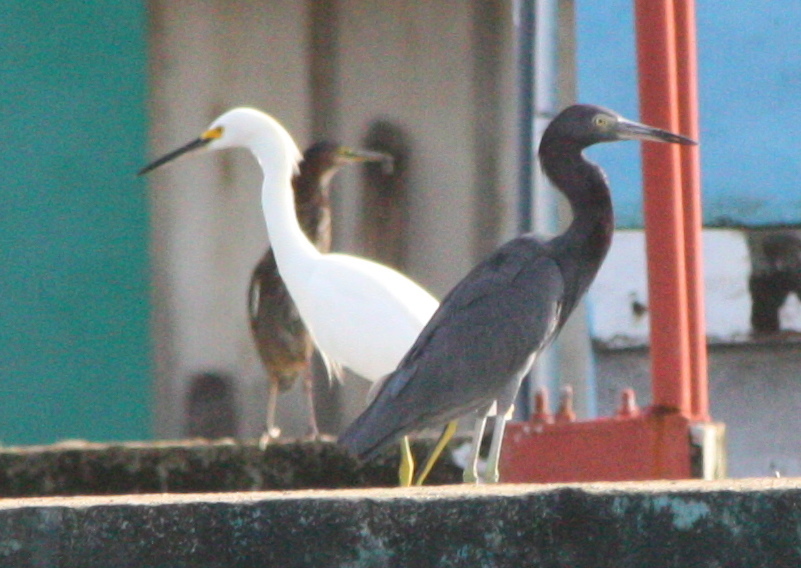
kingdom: Animalia
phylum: Chordata
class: Aves
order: Pelecaniformes
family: Ardeidae
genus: Egretta
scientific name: Egretta caerulea
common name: Little blue heron
